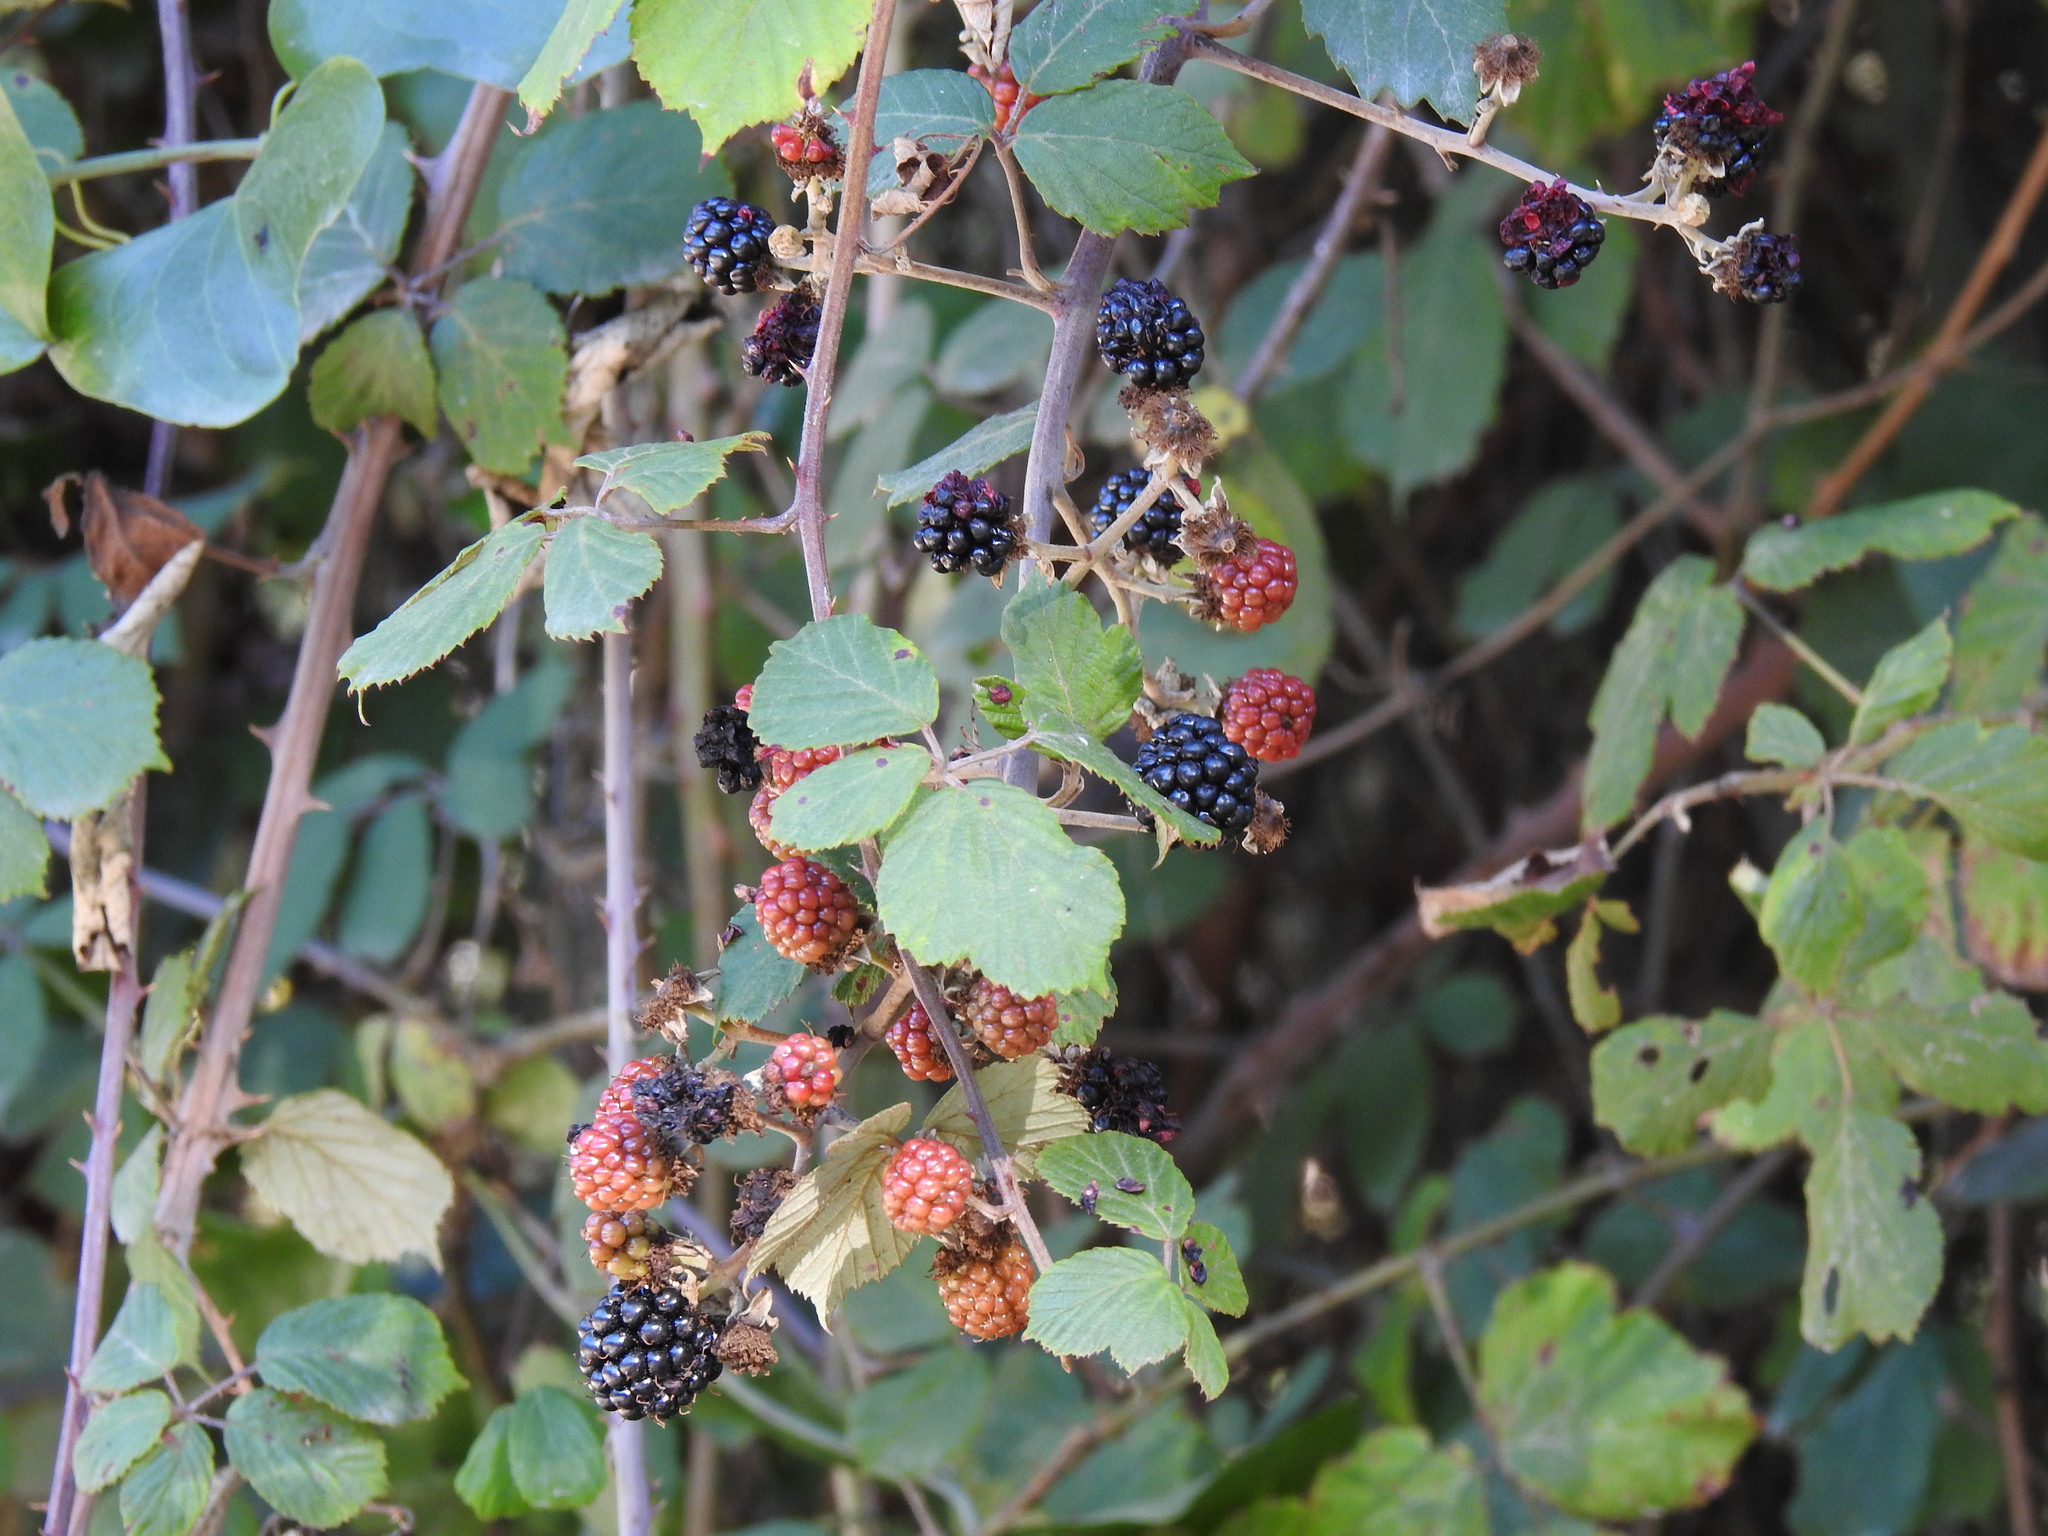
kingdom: Plantae
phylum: Tracheophyta
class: Magnoliopsida
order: Rosales
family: Rosaceae
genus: Rubus
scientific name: Rubus ulmifolius
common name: Elmleaf blackberry
